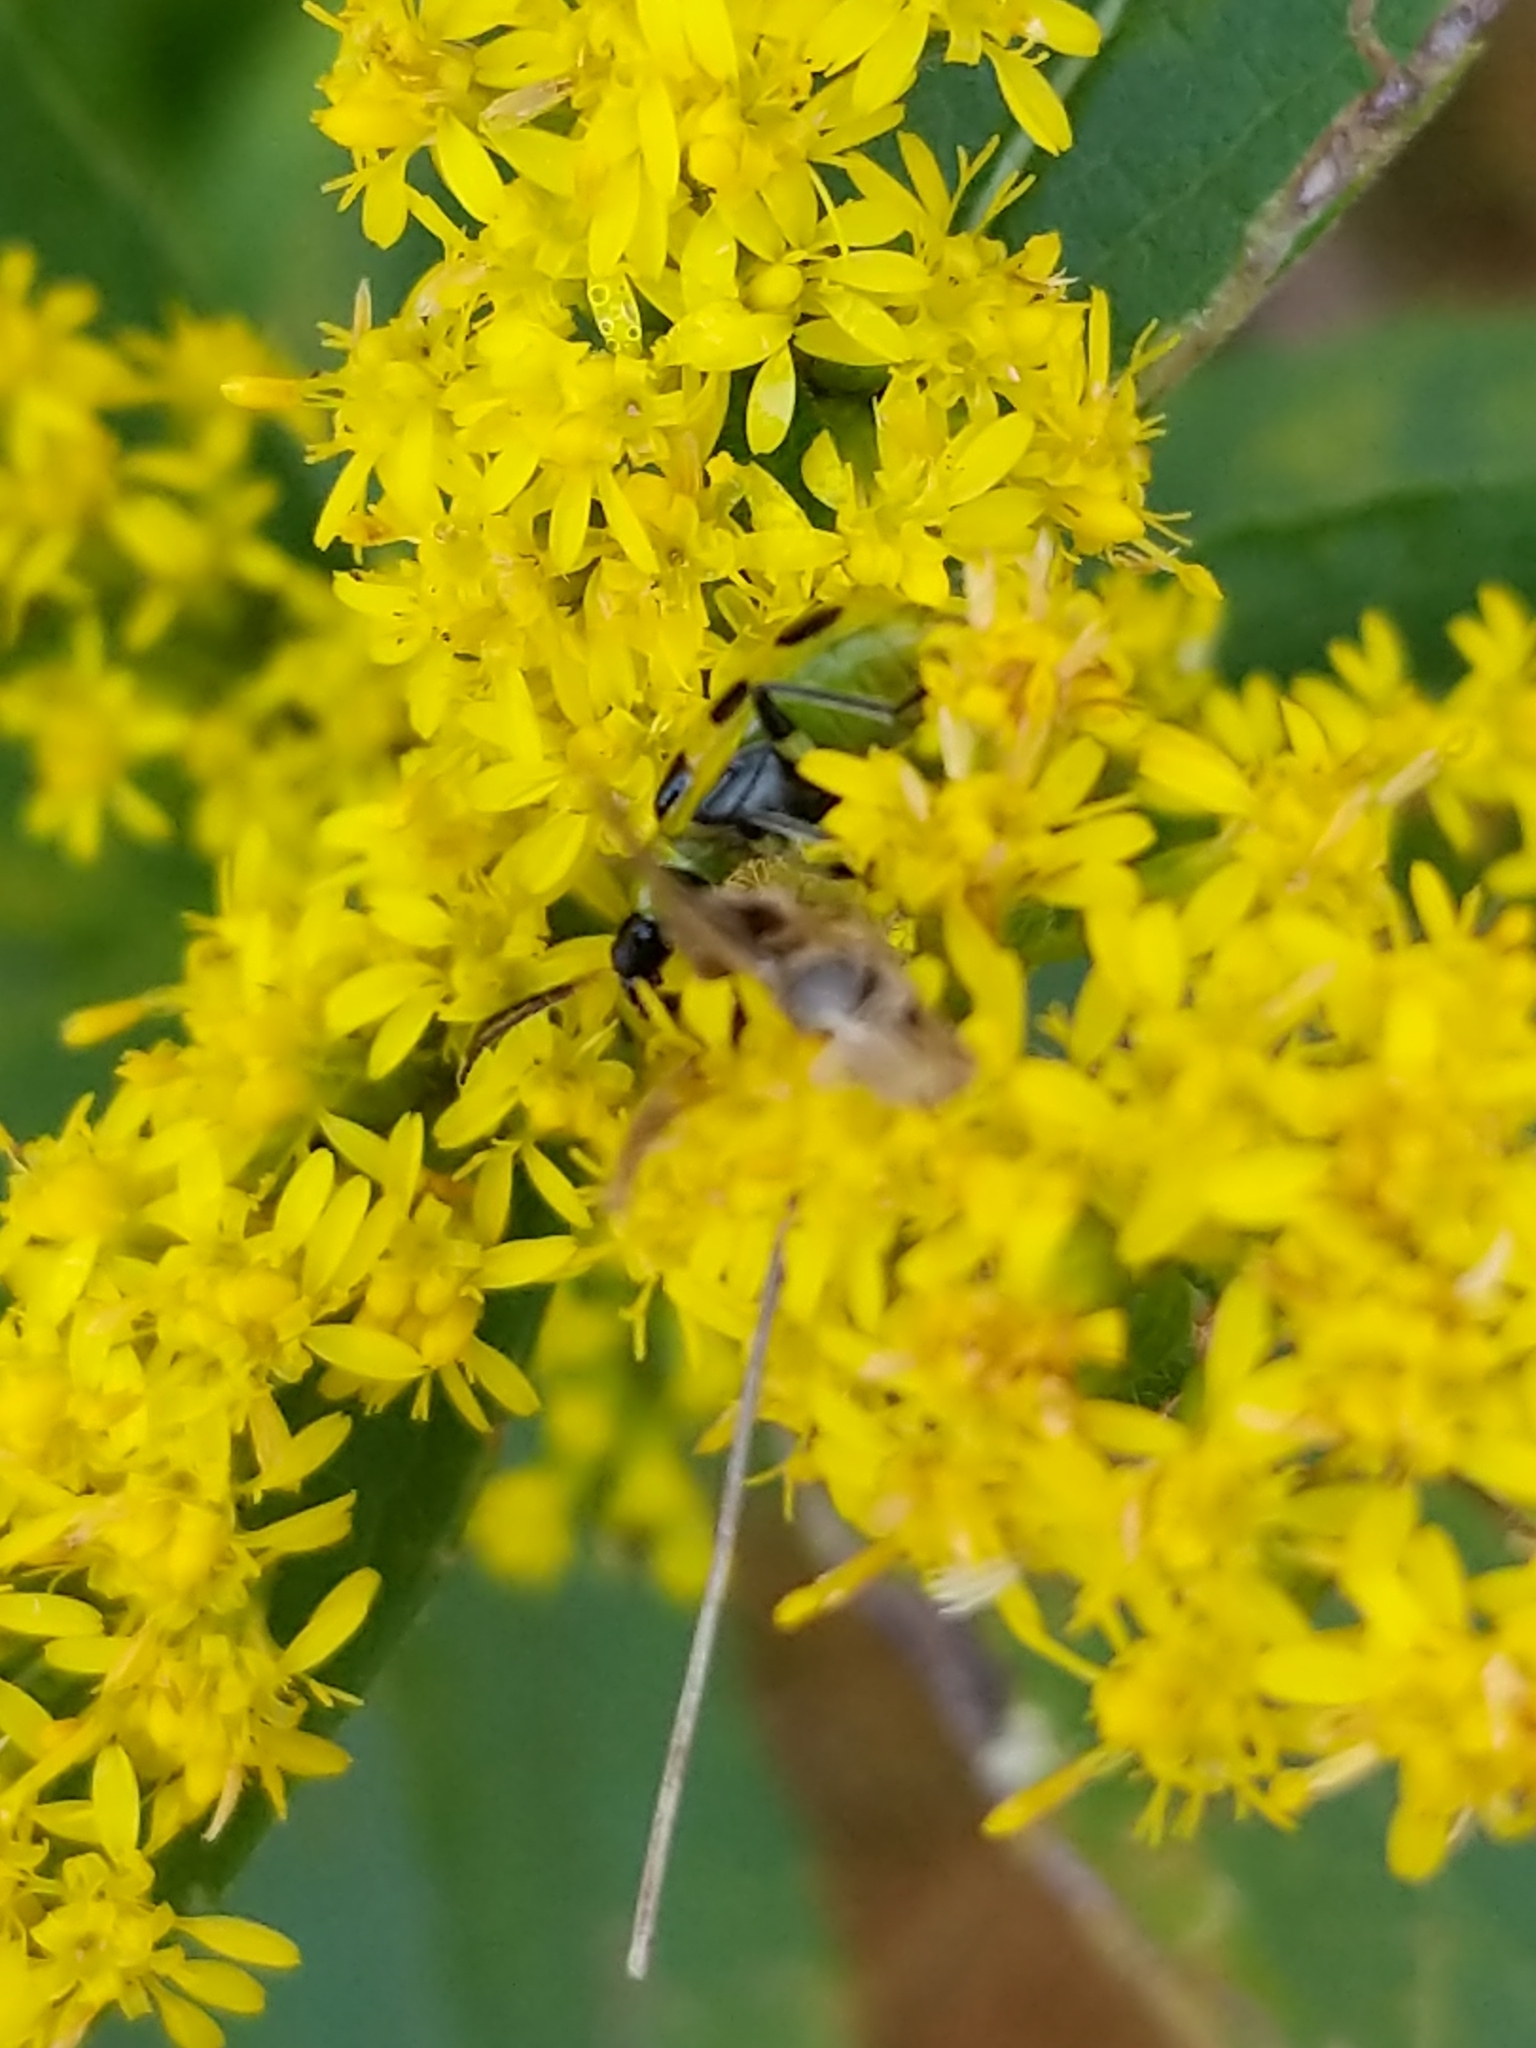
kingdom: Animalia
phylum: Arthropoda
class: Insecta
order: Coleoptera
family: Chrysomelidae
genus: Diabrotica
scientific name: Diabrotica undecimpunctata
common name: Spotted cucumber beetle
